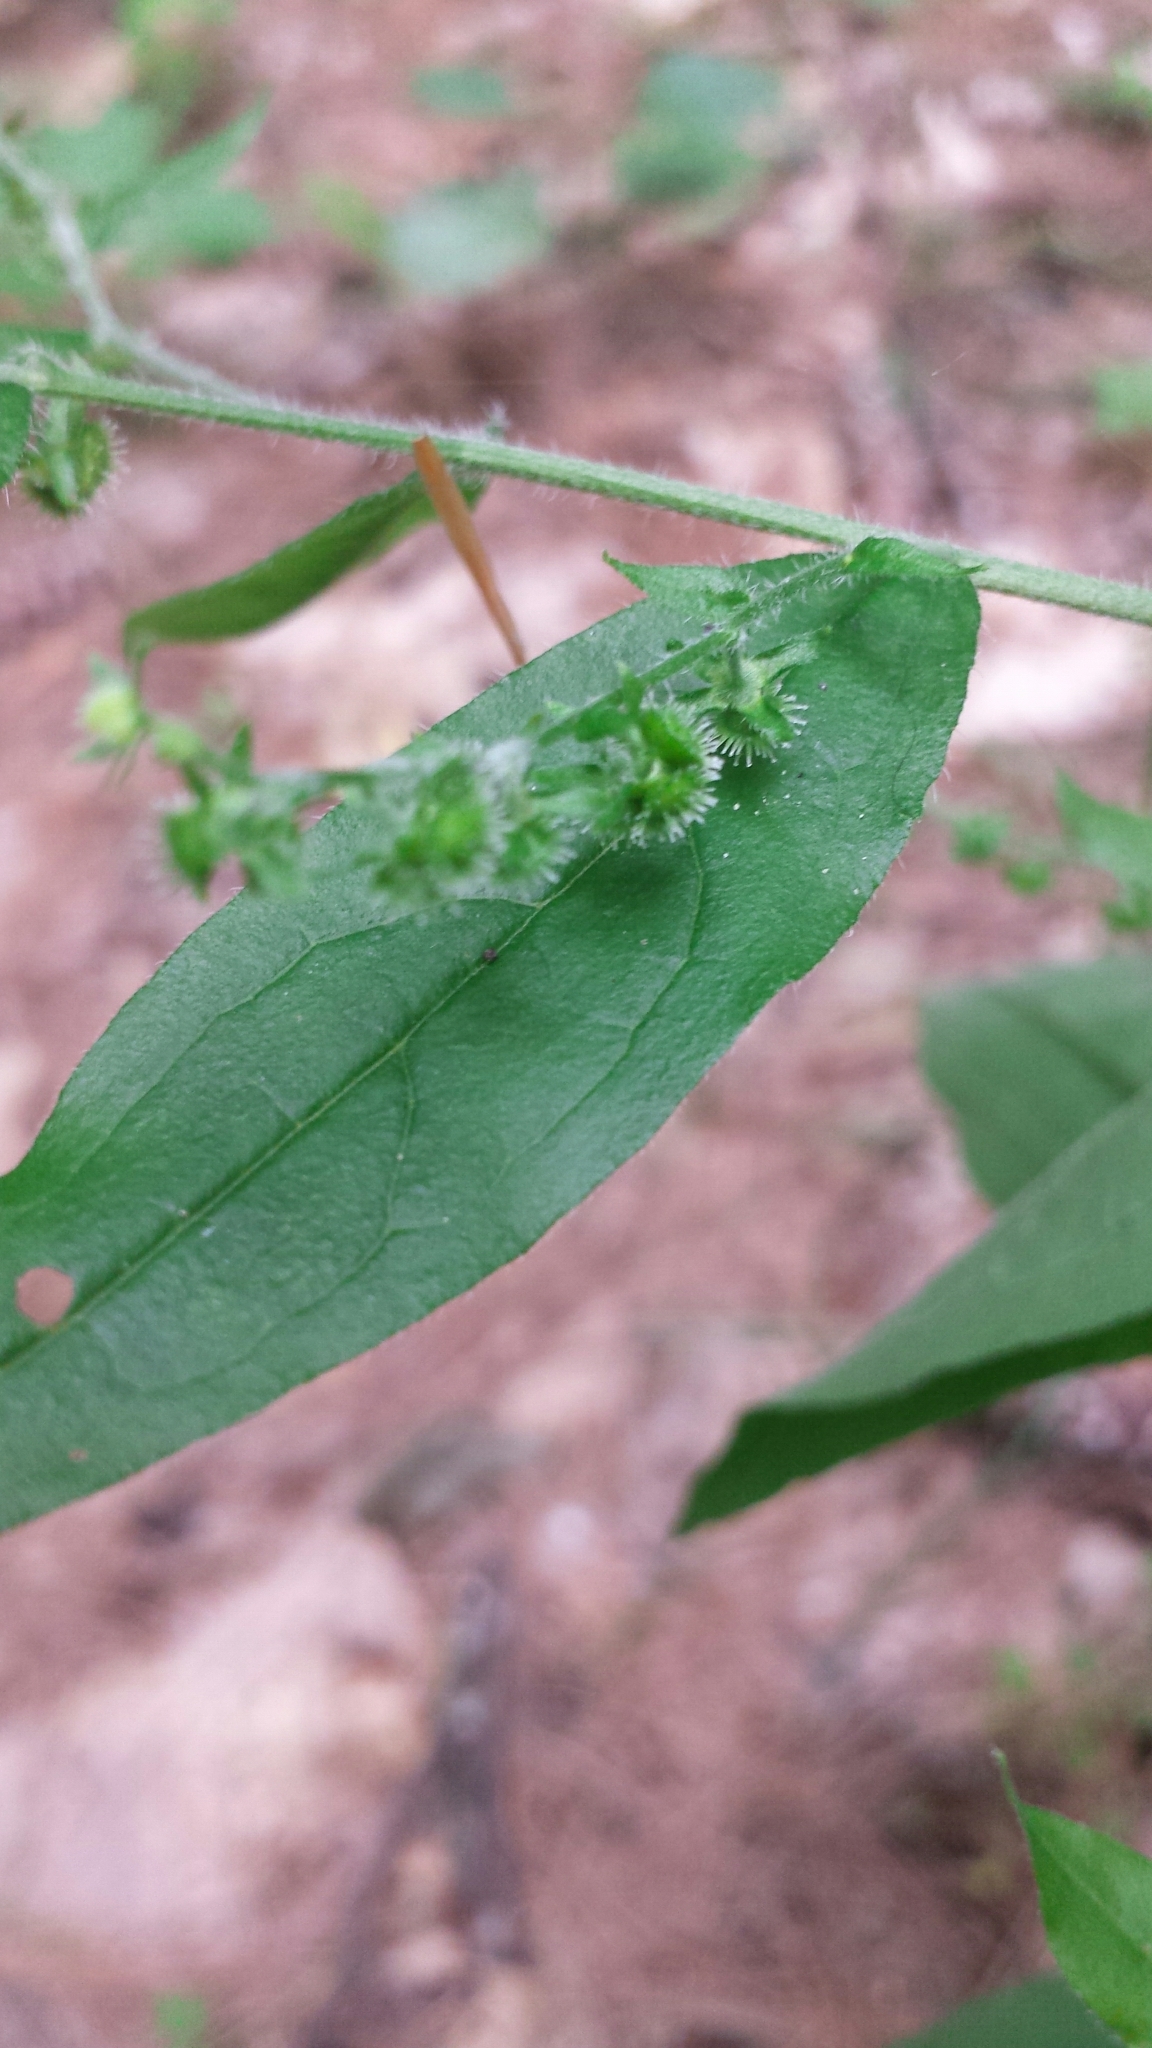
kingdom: Plantae
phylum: Tracheophyta
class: Magnoliopsida
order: Boraginales
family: Boraginaceae
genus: Hackelia
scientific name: Hackelia virginiana
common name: Beggar's-lice
